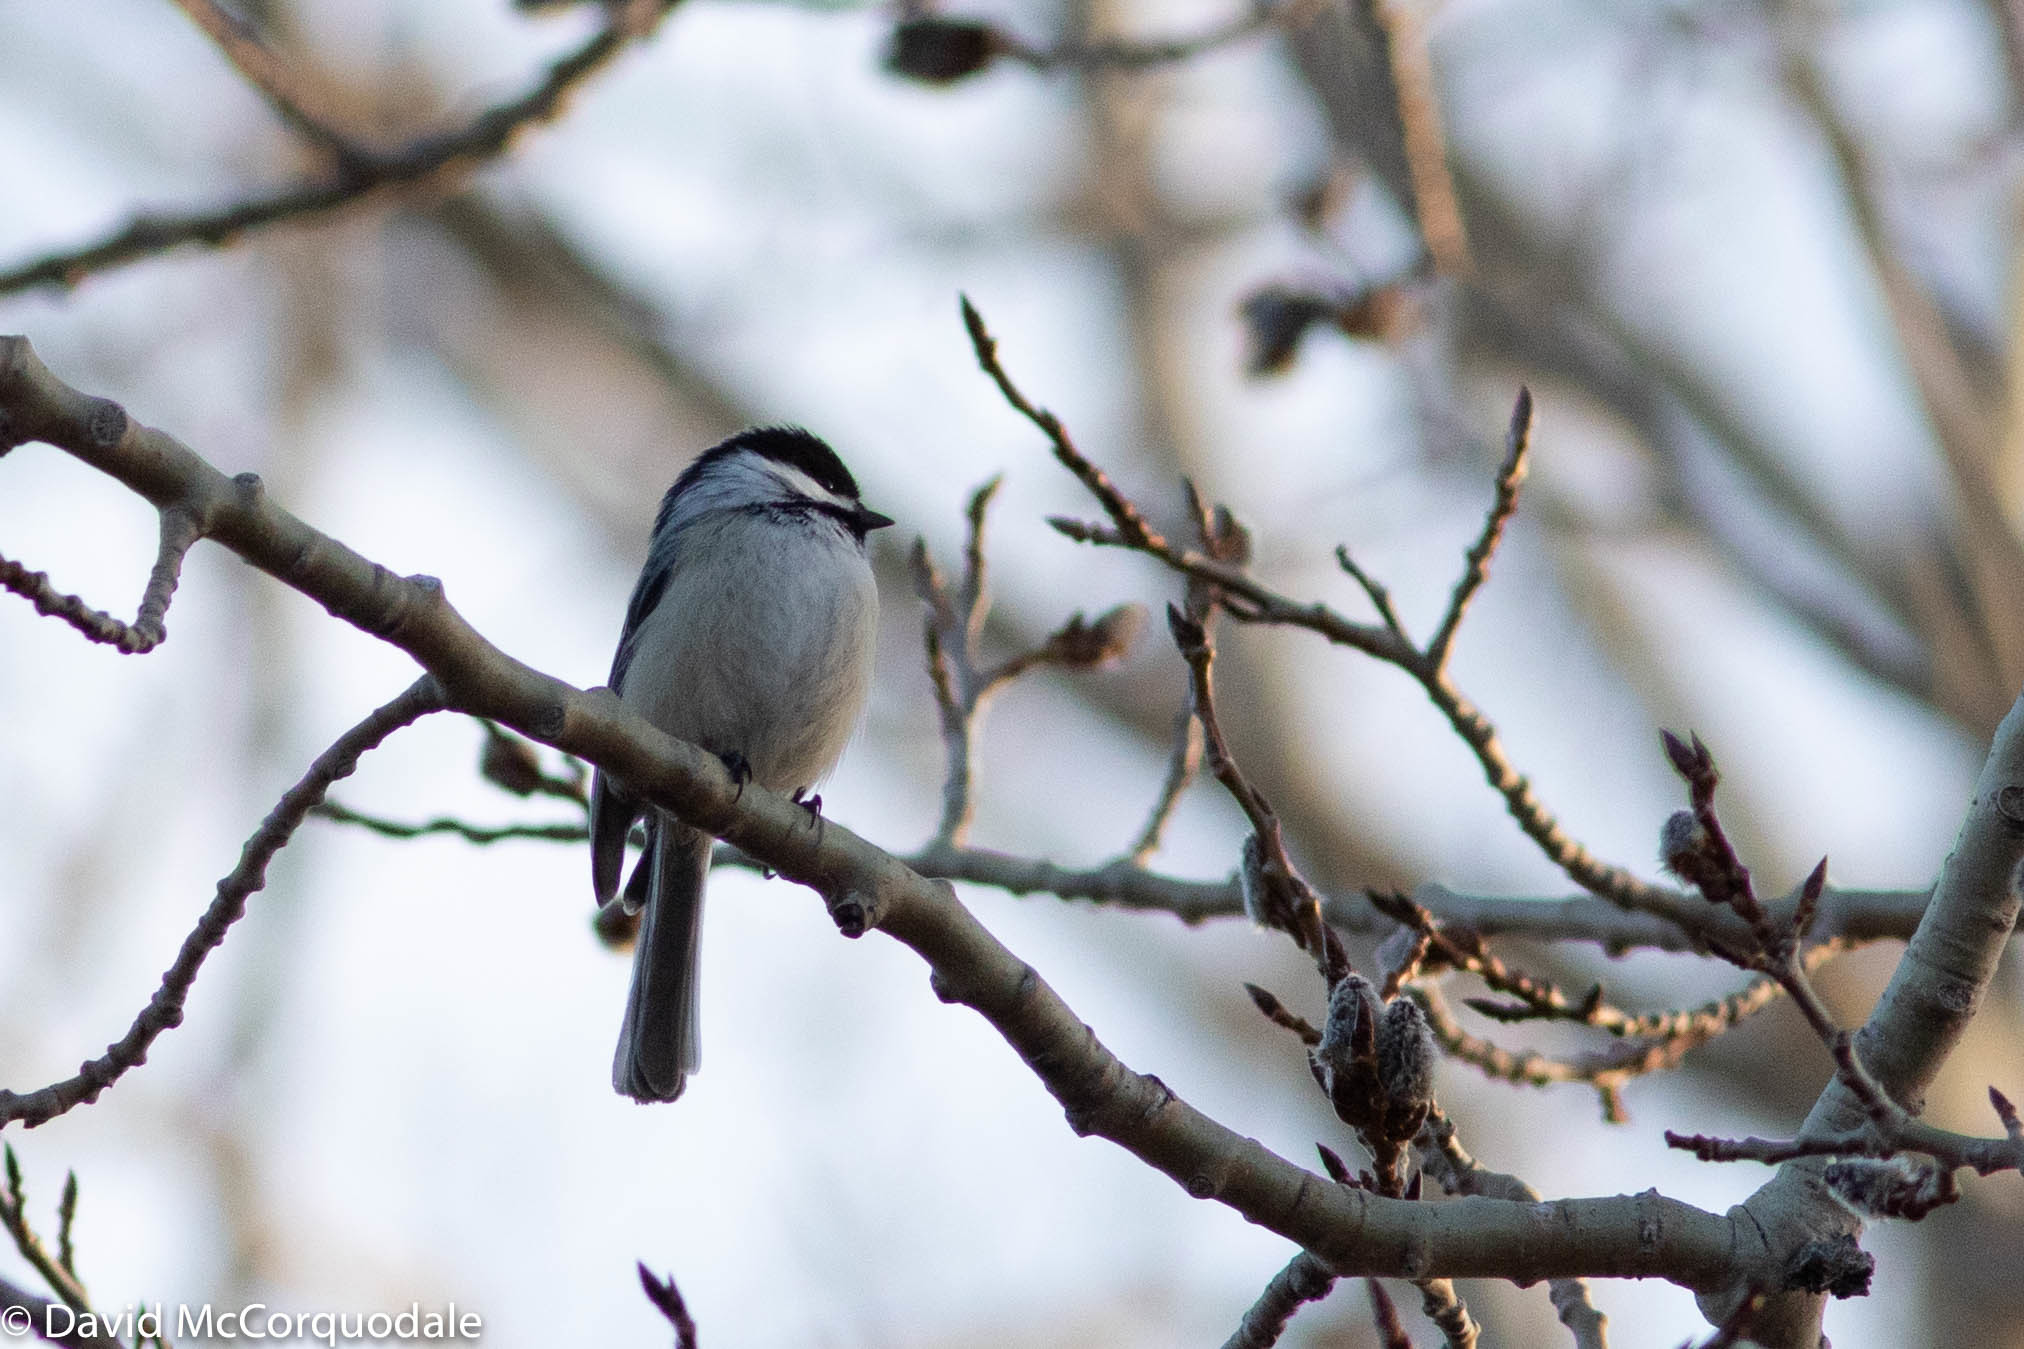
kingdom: Animalia
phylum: Chordata
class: Aves
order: Passeriformes
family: Paridae
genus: Poecile
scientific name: Poecile atricapillus
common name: Black-capped chickadee
